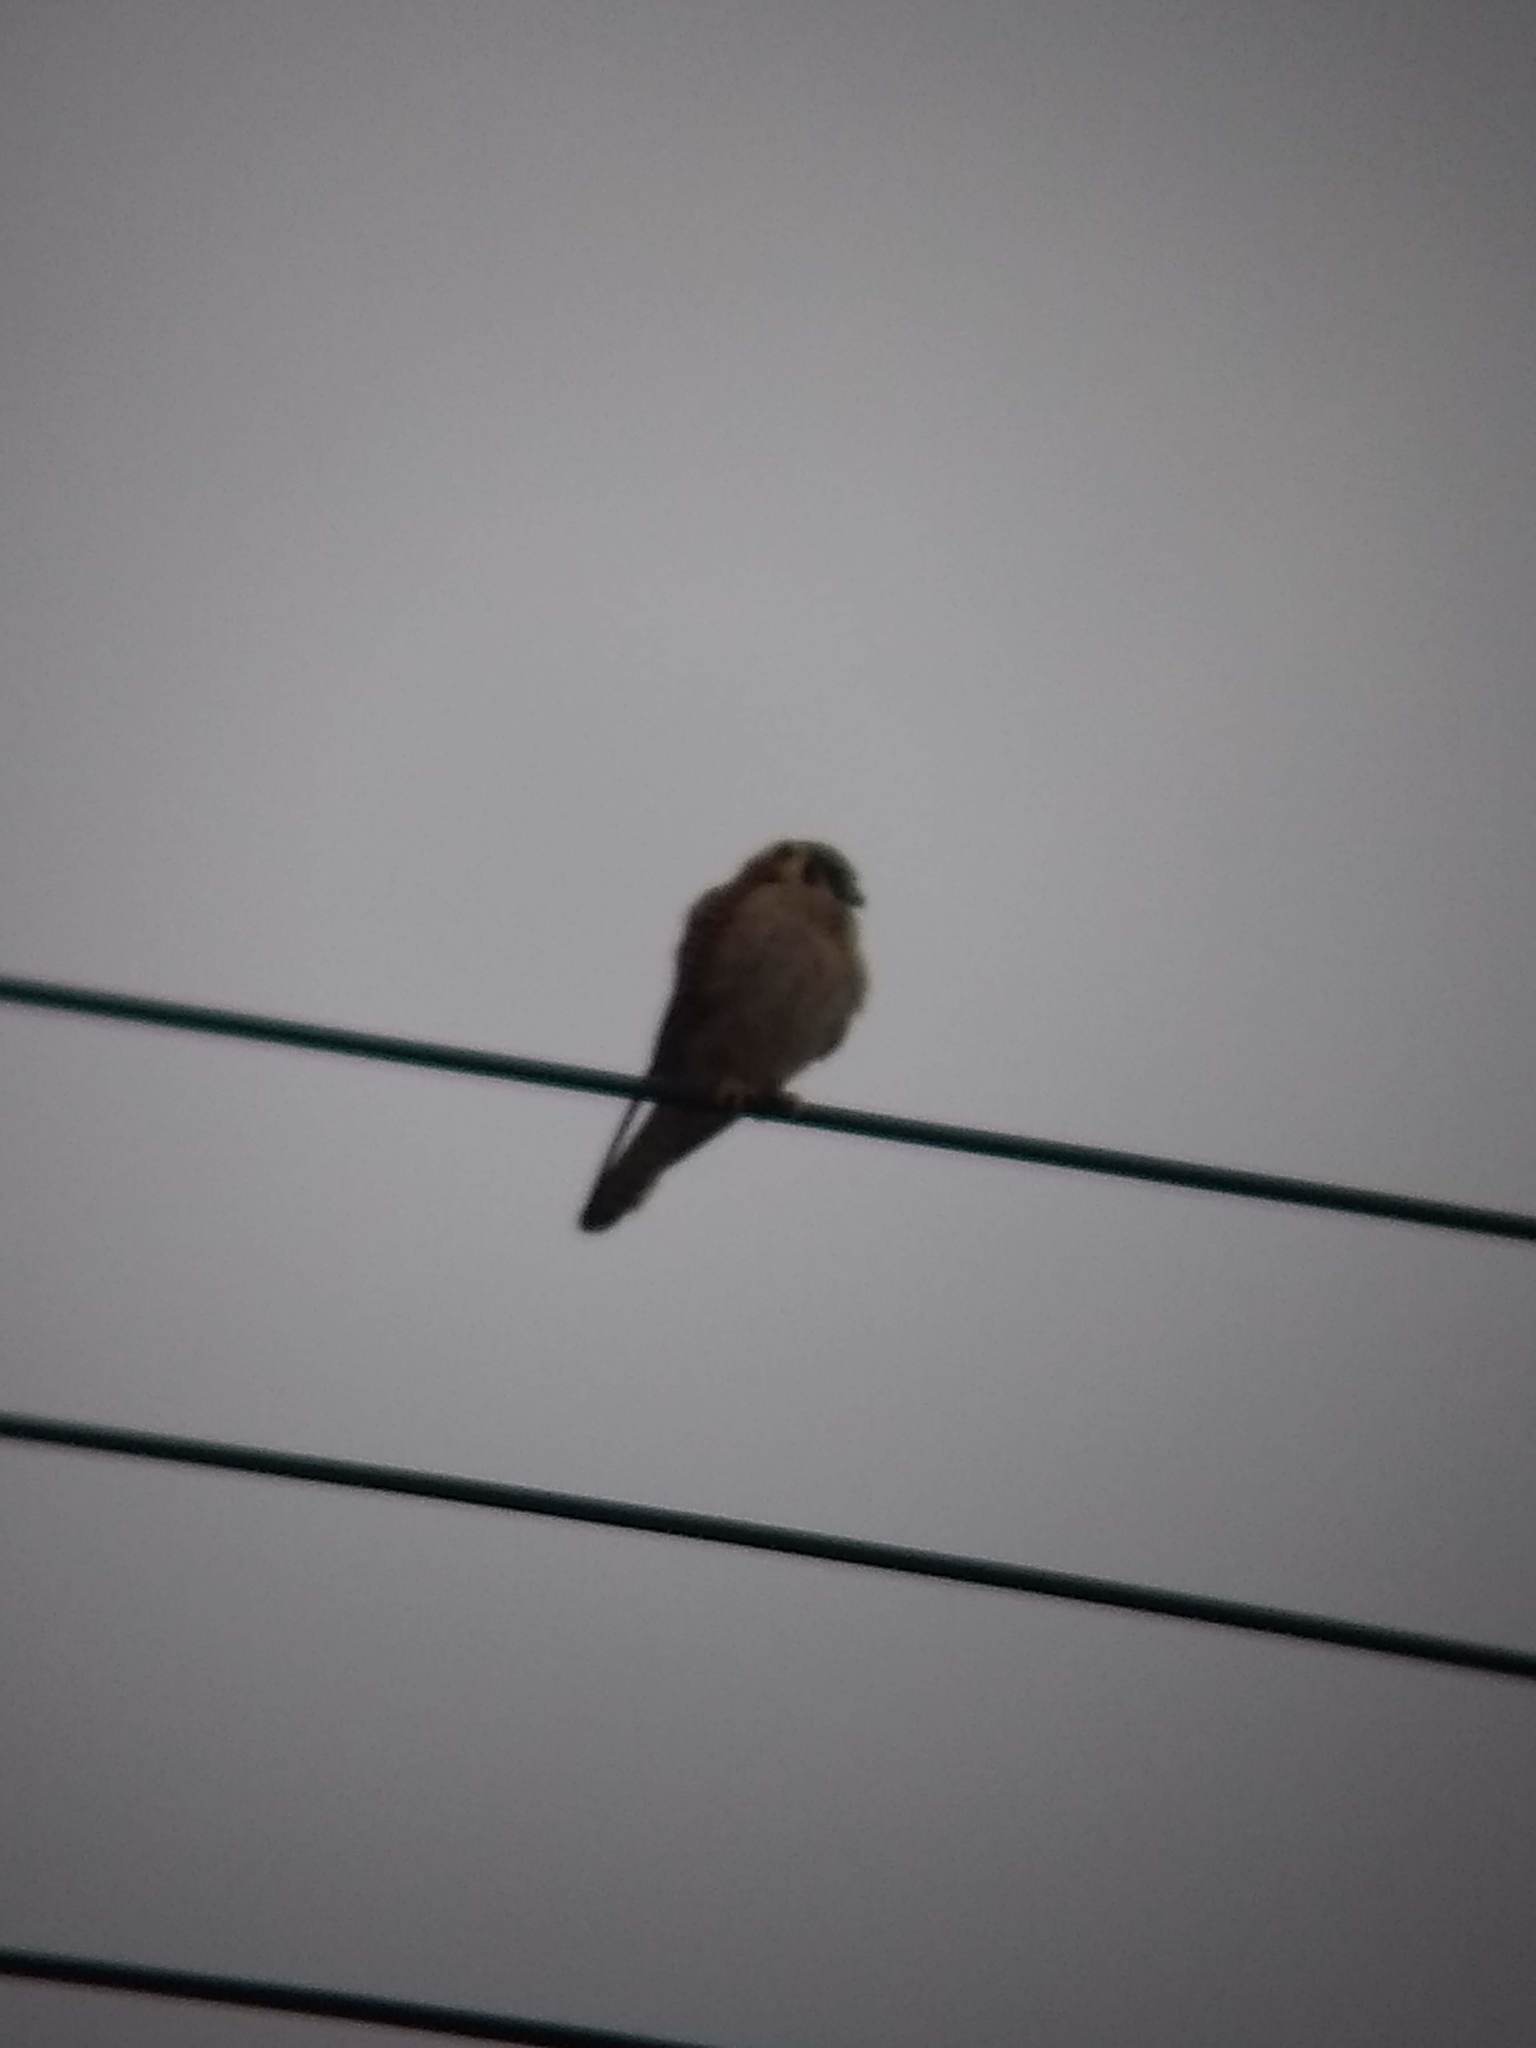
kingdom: Animalia
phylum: Chordata
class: Aves
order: Falconiformes
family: Falconidae
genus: Falco
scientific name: Falco sparverius
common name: American kestrel
